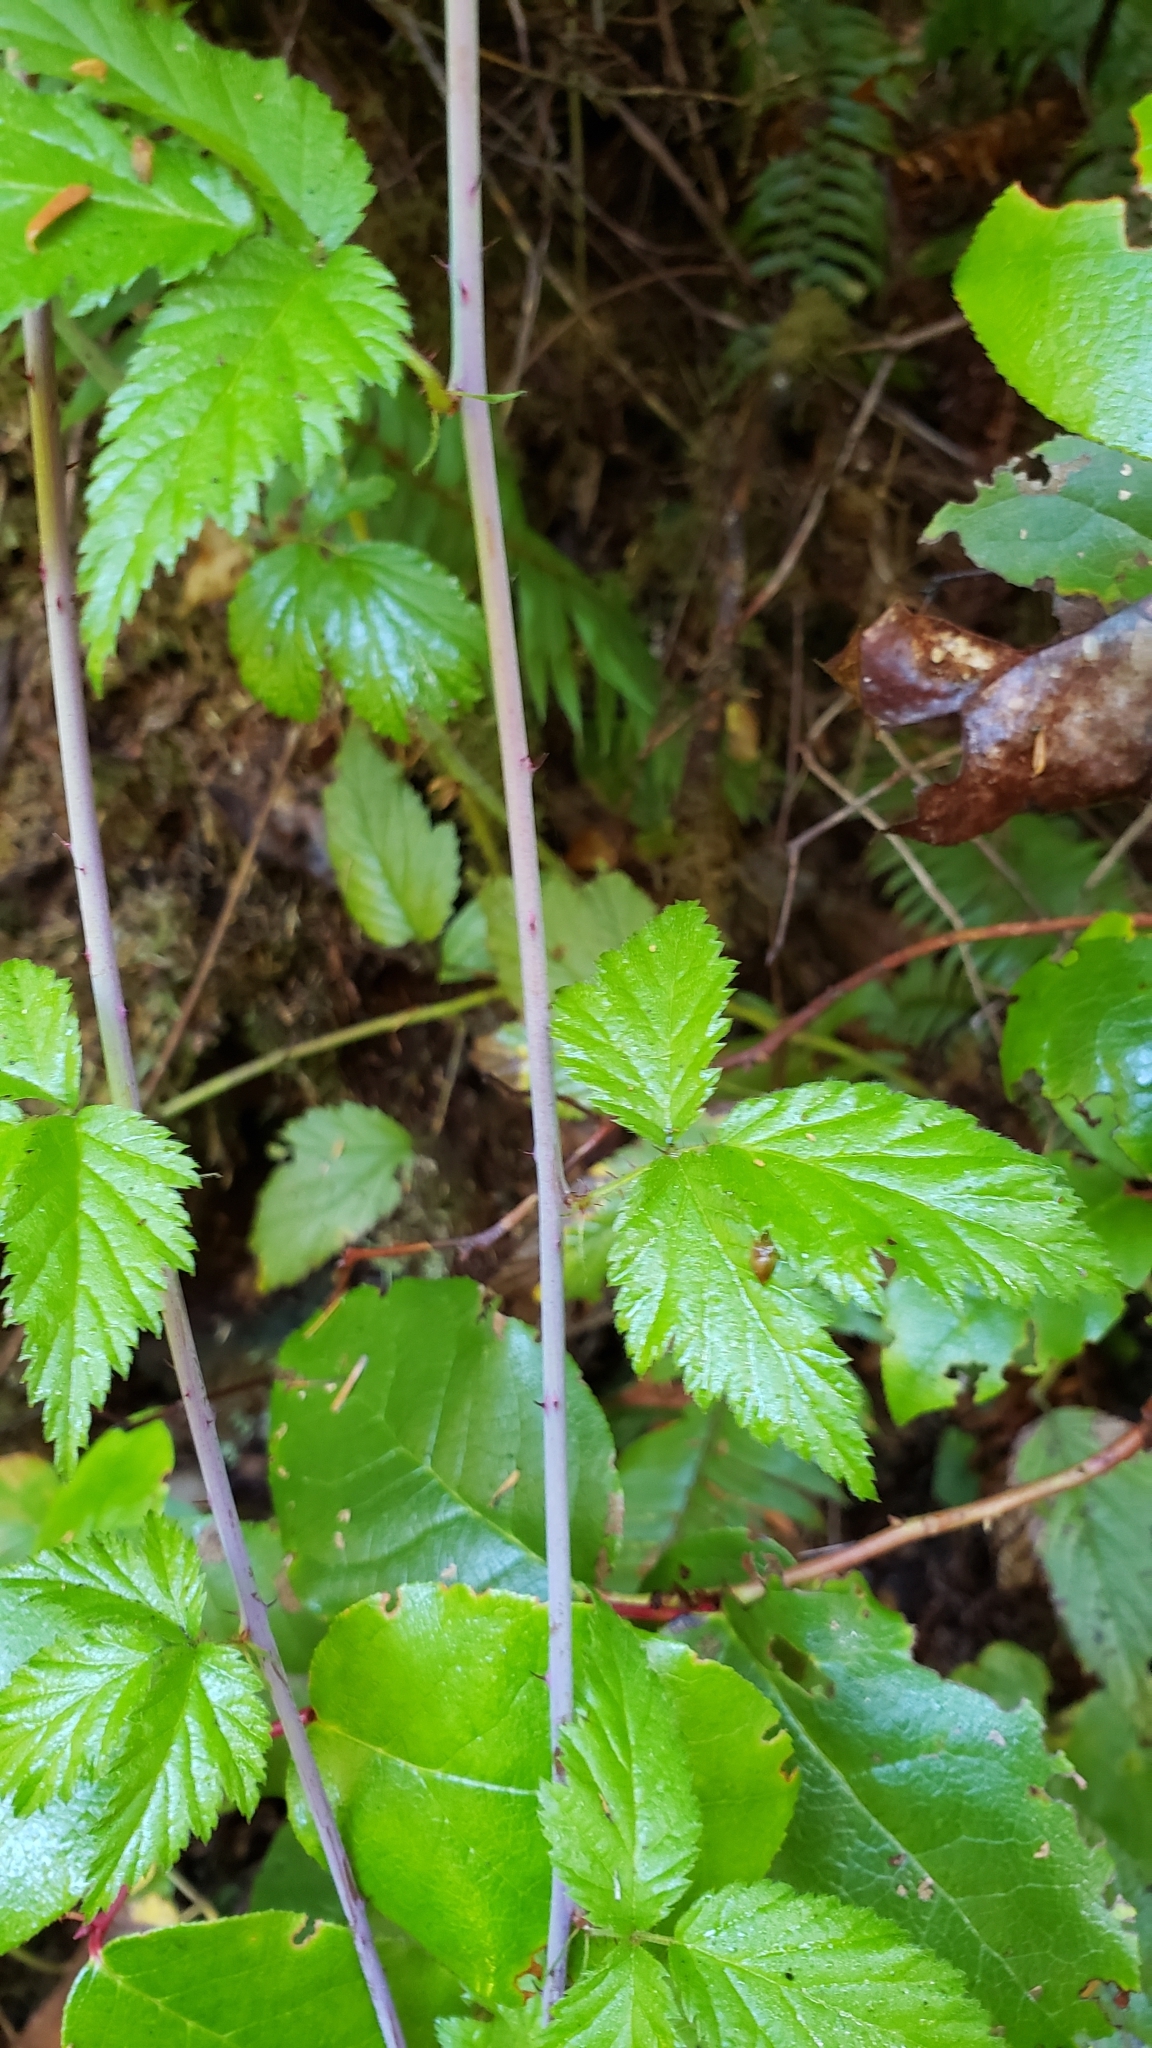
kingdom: Plantae
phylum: Tracheophyta
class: Magnoliopsida
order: Rosales
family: Rosaceae
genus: Rubus
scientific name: Rubus ursinus
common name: Pacific blackberry
